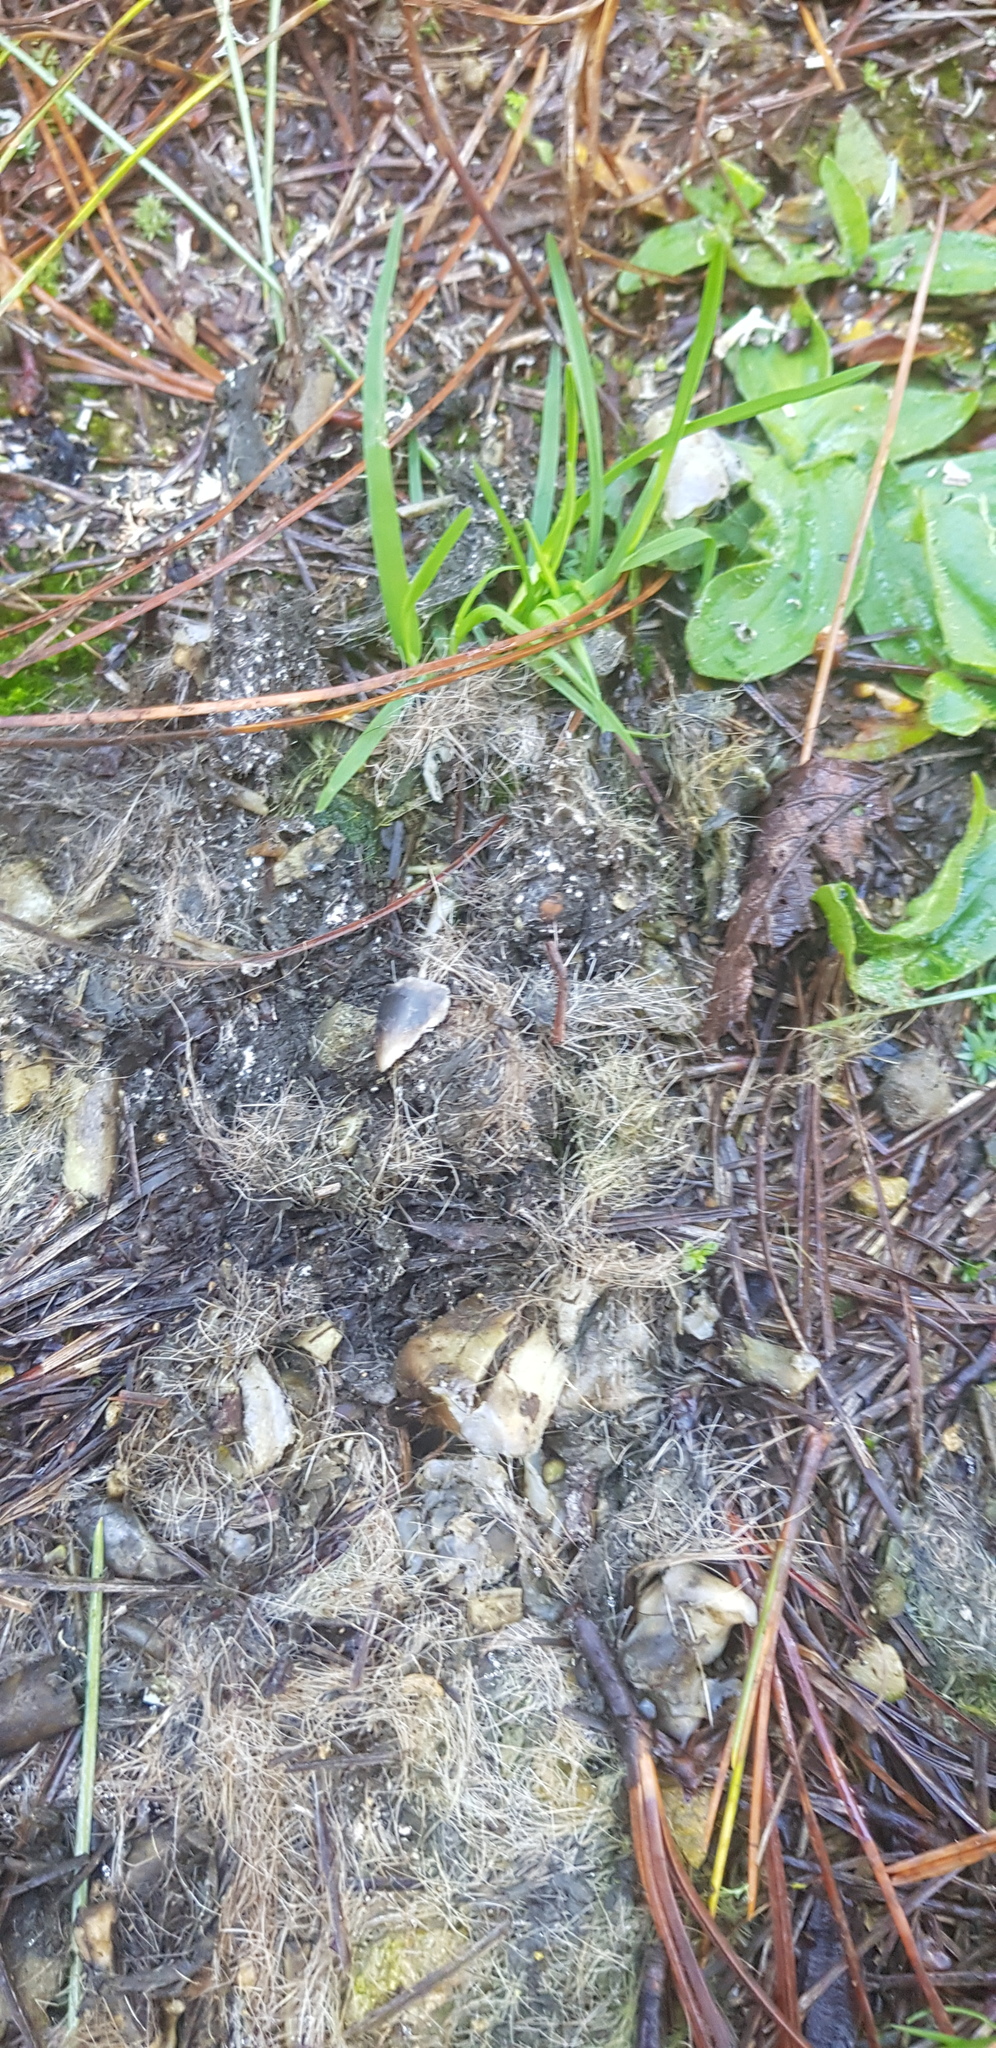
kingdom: Animalia
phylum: Chordata
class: Mammalia
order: Carnivora
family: Felidae
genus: Puma
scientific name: Puma concolor
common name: Puma
